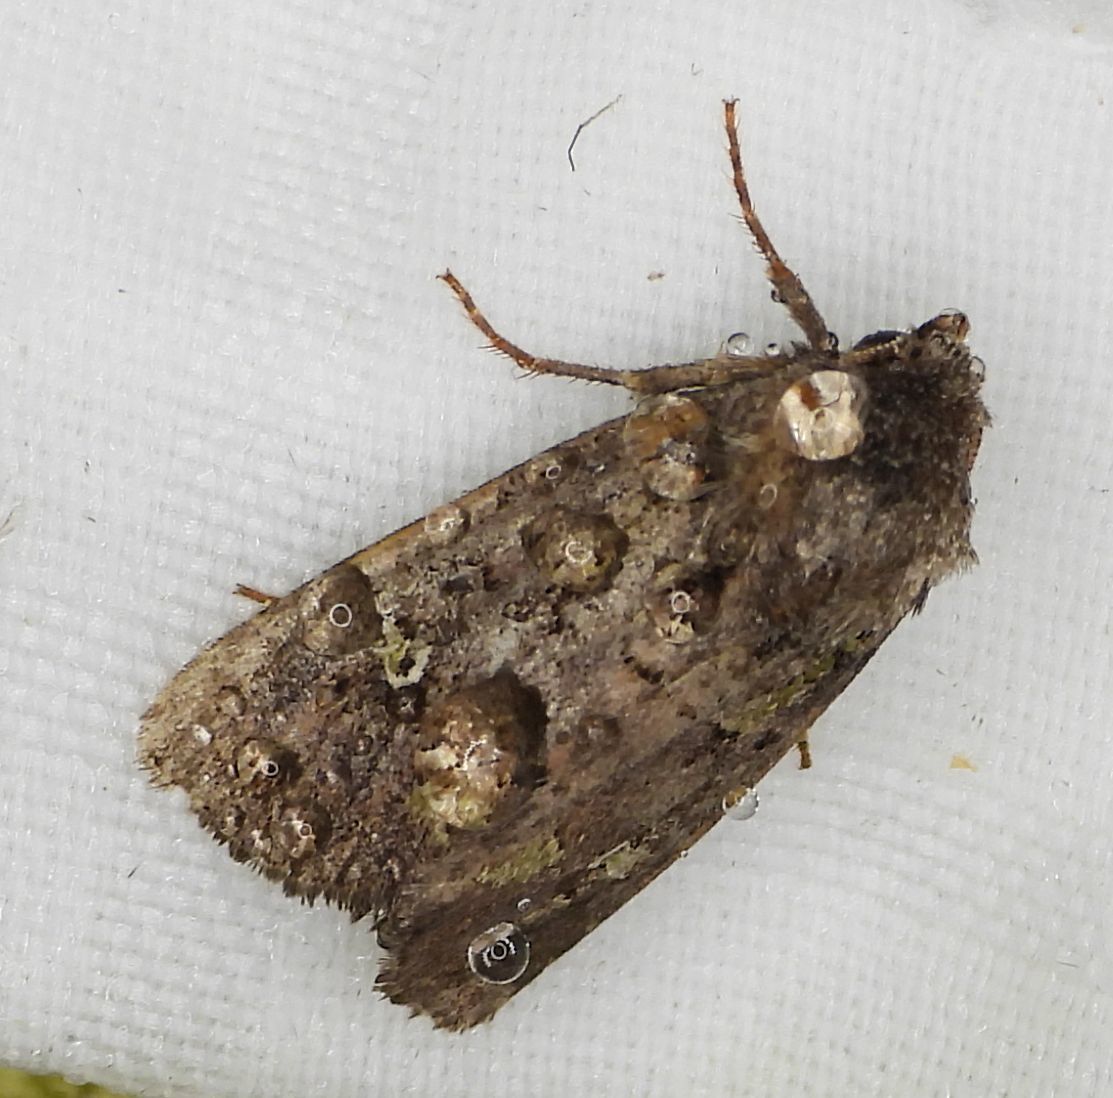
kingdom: Animalia
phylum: Arthropoda
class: Insecta
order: Lepidoptera
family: Noctuidae
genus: Lacinipolia
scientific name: Lacinipolia renigera
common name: Kidney-spotted minor
